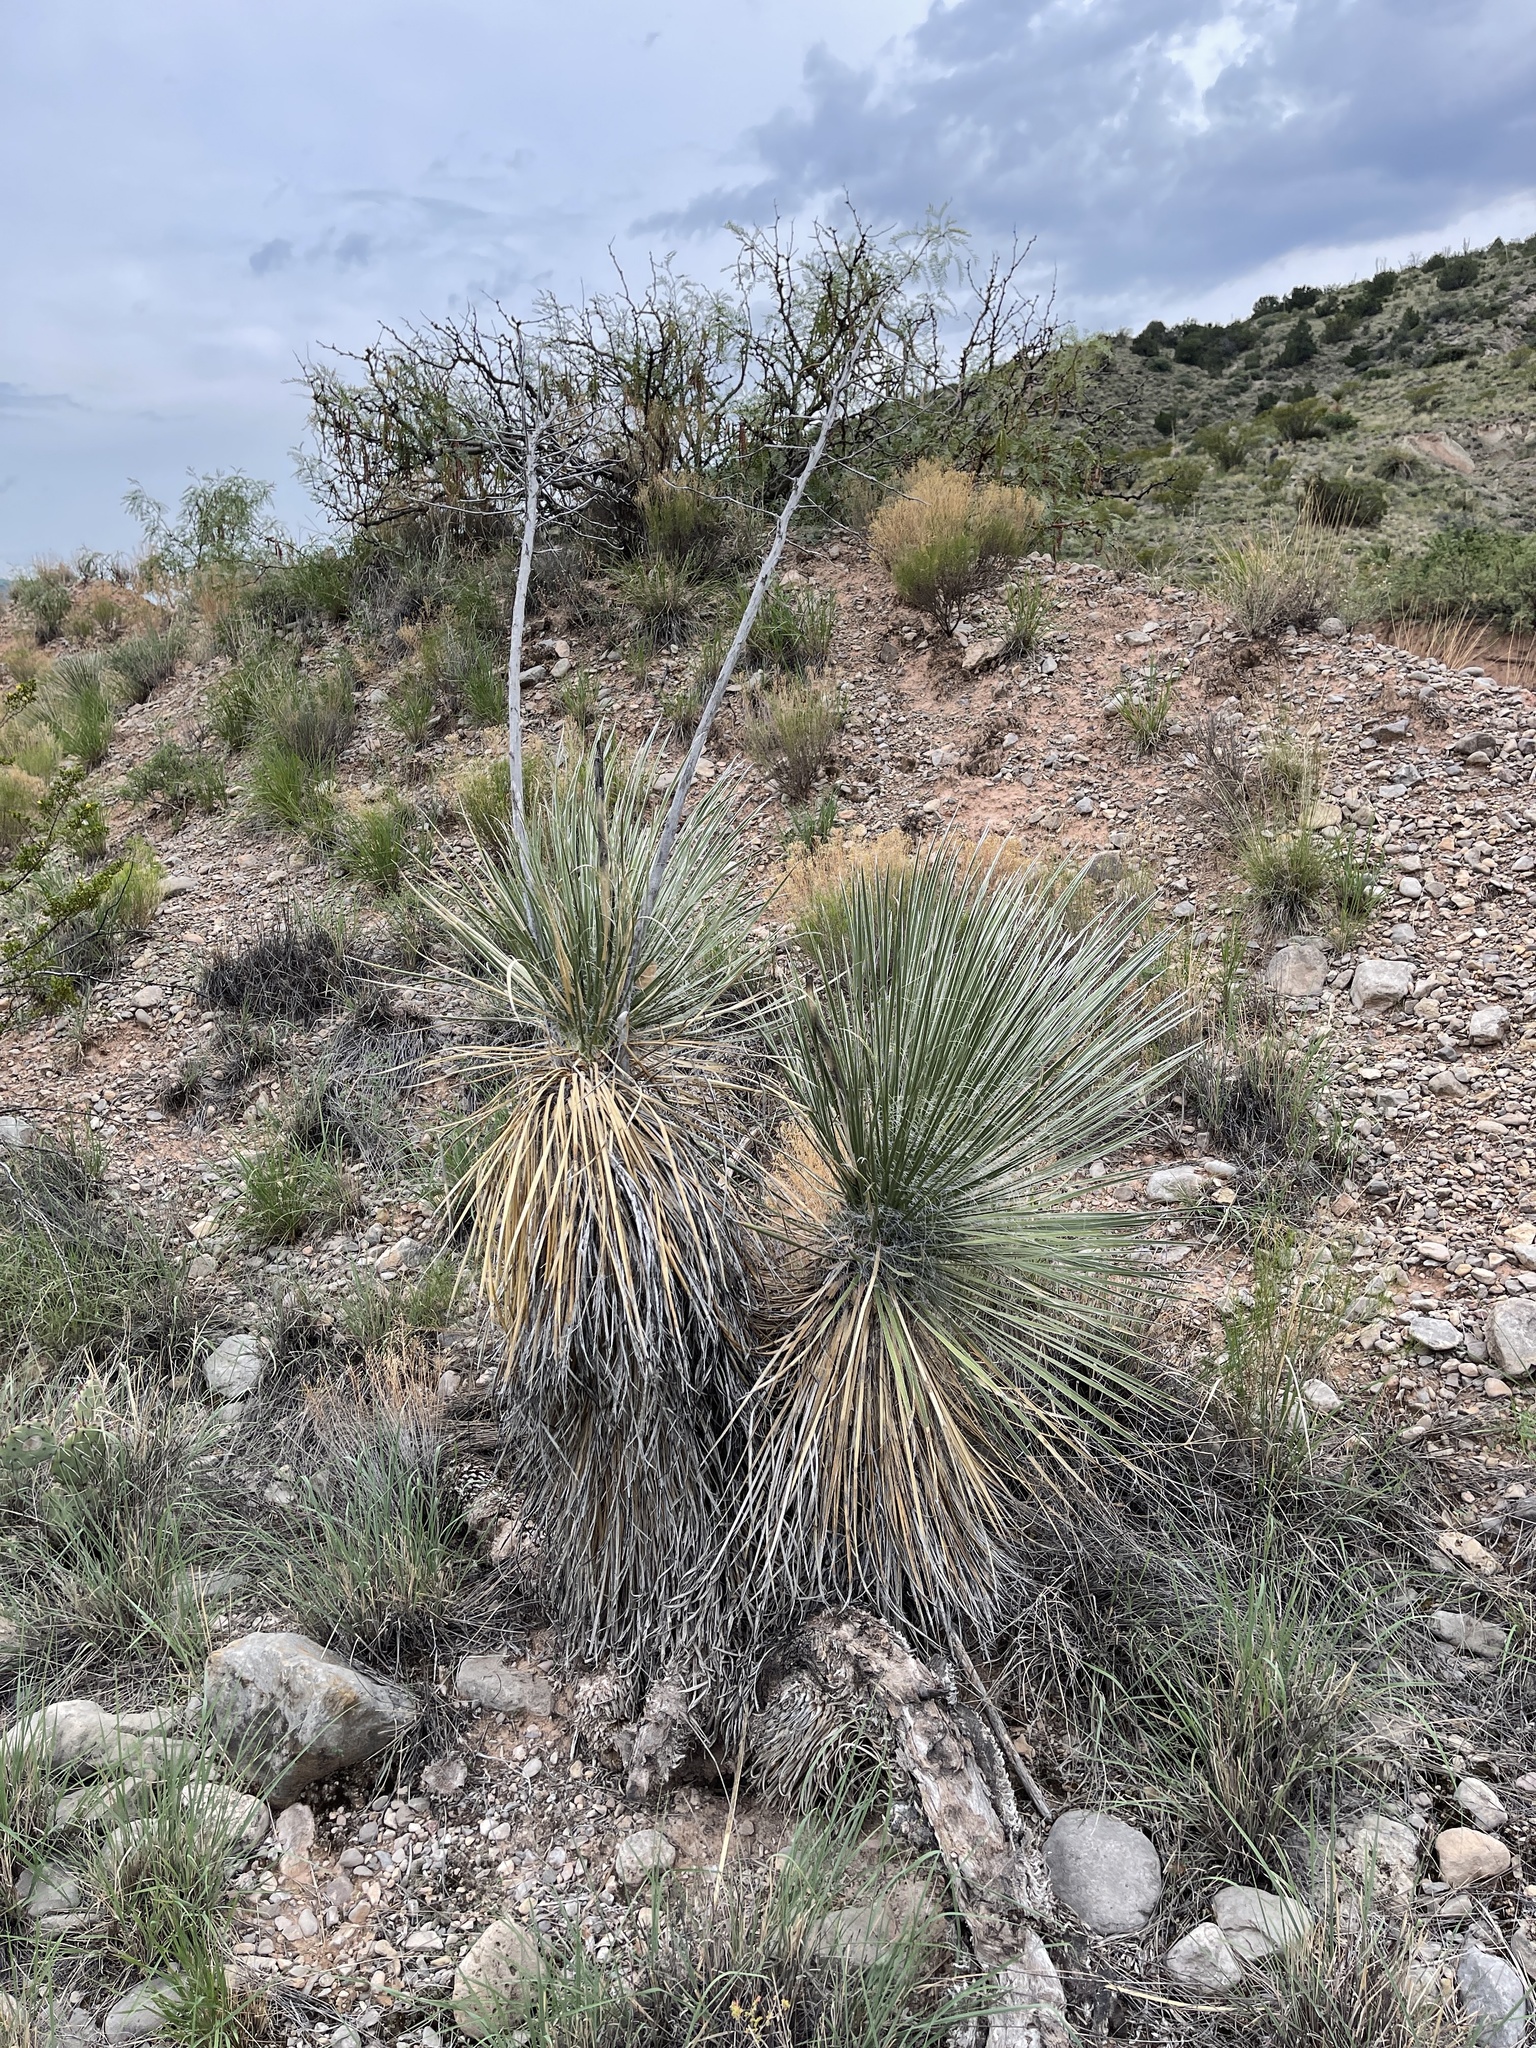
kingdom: Plantae
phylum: Tracheophyta
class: Liliopsida
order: Asparagales
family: Asparagaceae
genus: Yucca
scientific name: Yucca elata
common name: Palmella
